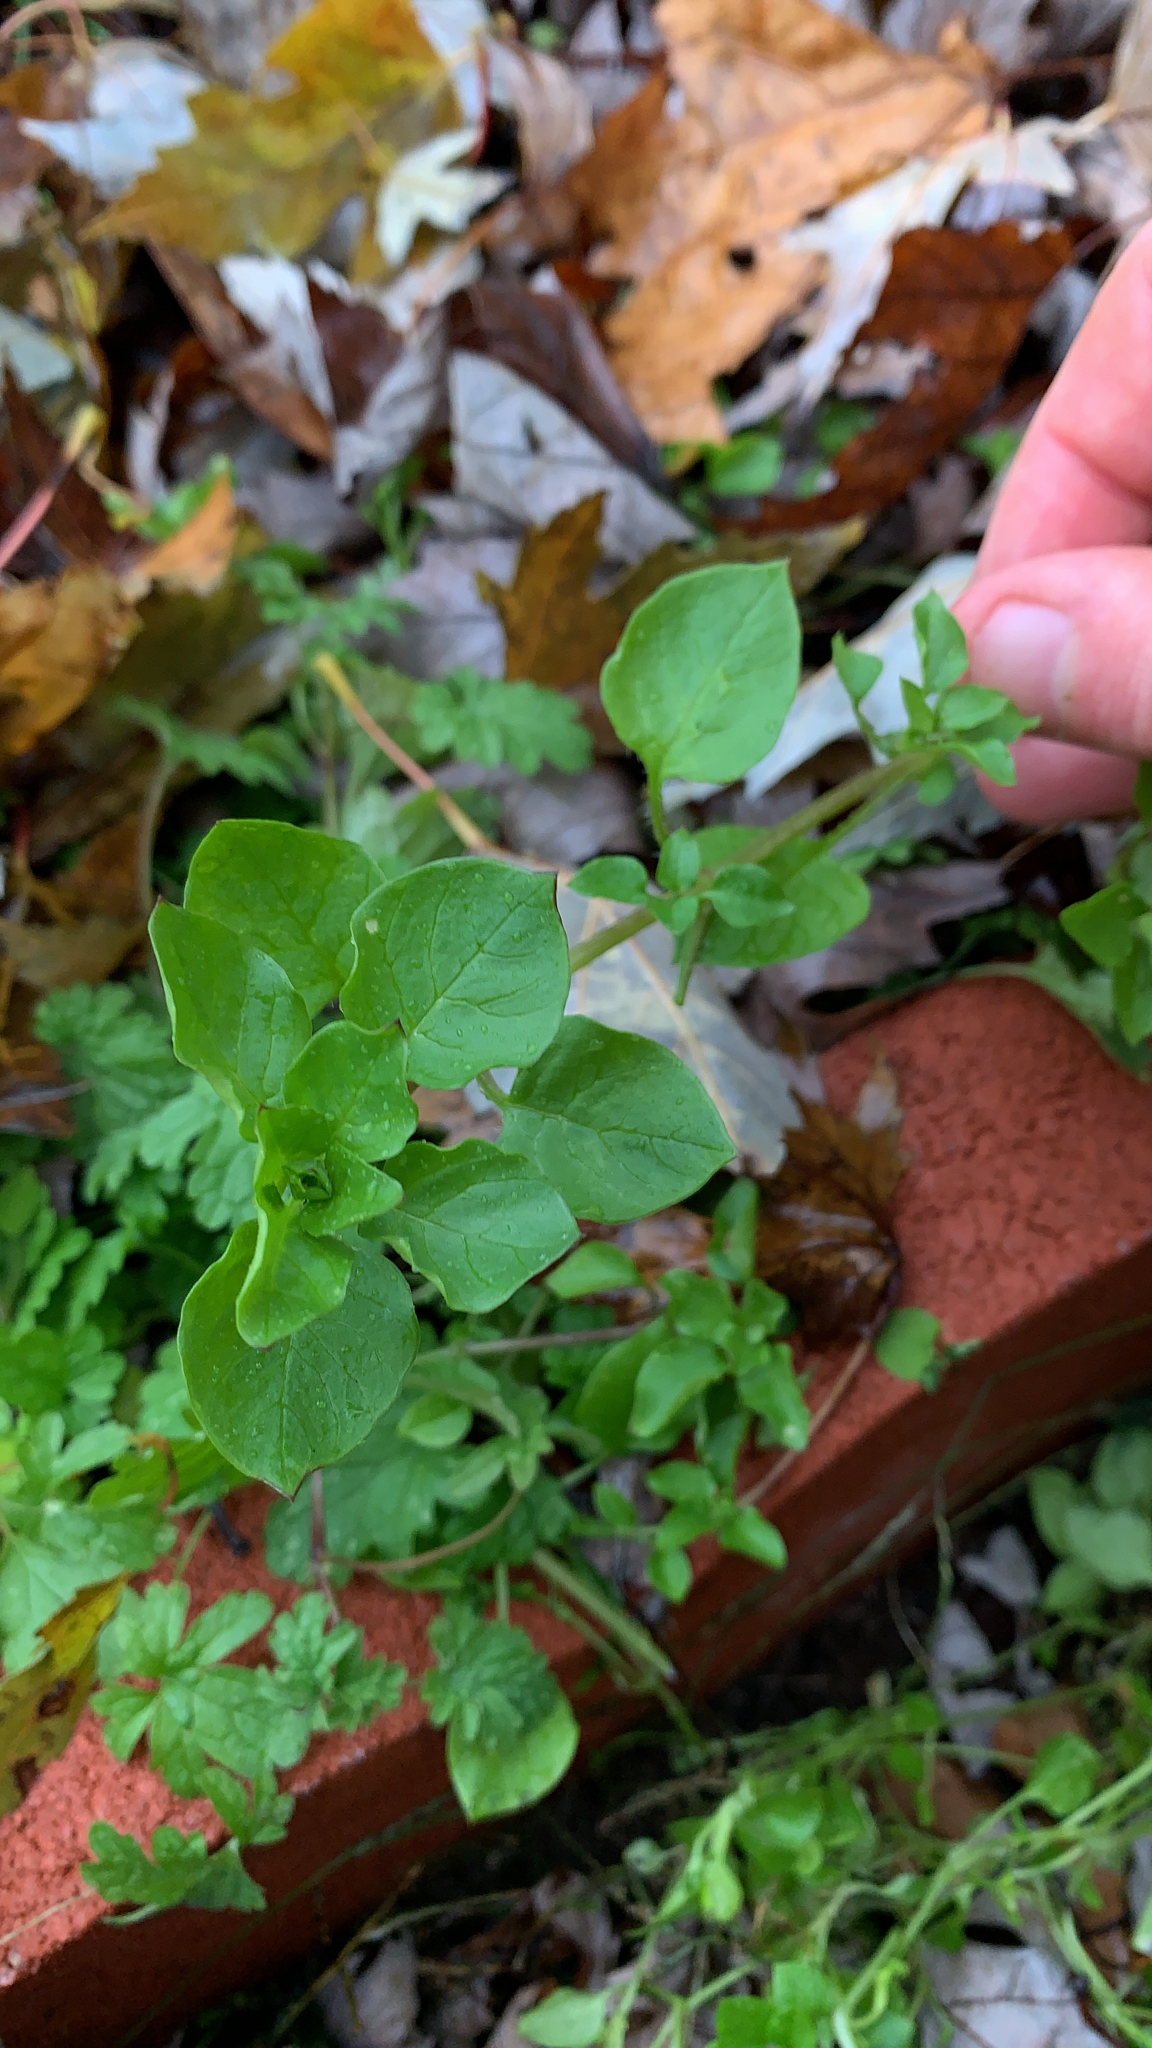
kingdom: Plantae
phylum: Tracheophyta
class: Magnoliopsida
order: Caryophyllales
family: Caryophyllaceae
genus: Stellaria
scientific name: Stellaria media
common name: Common chickweed
